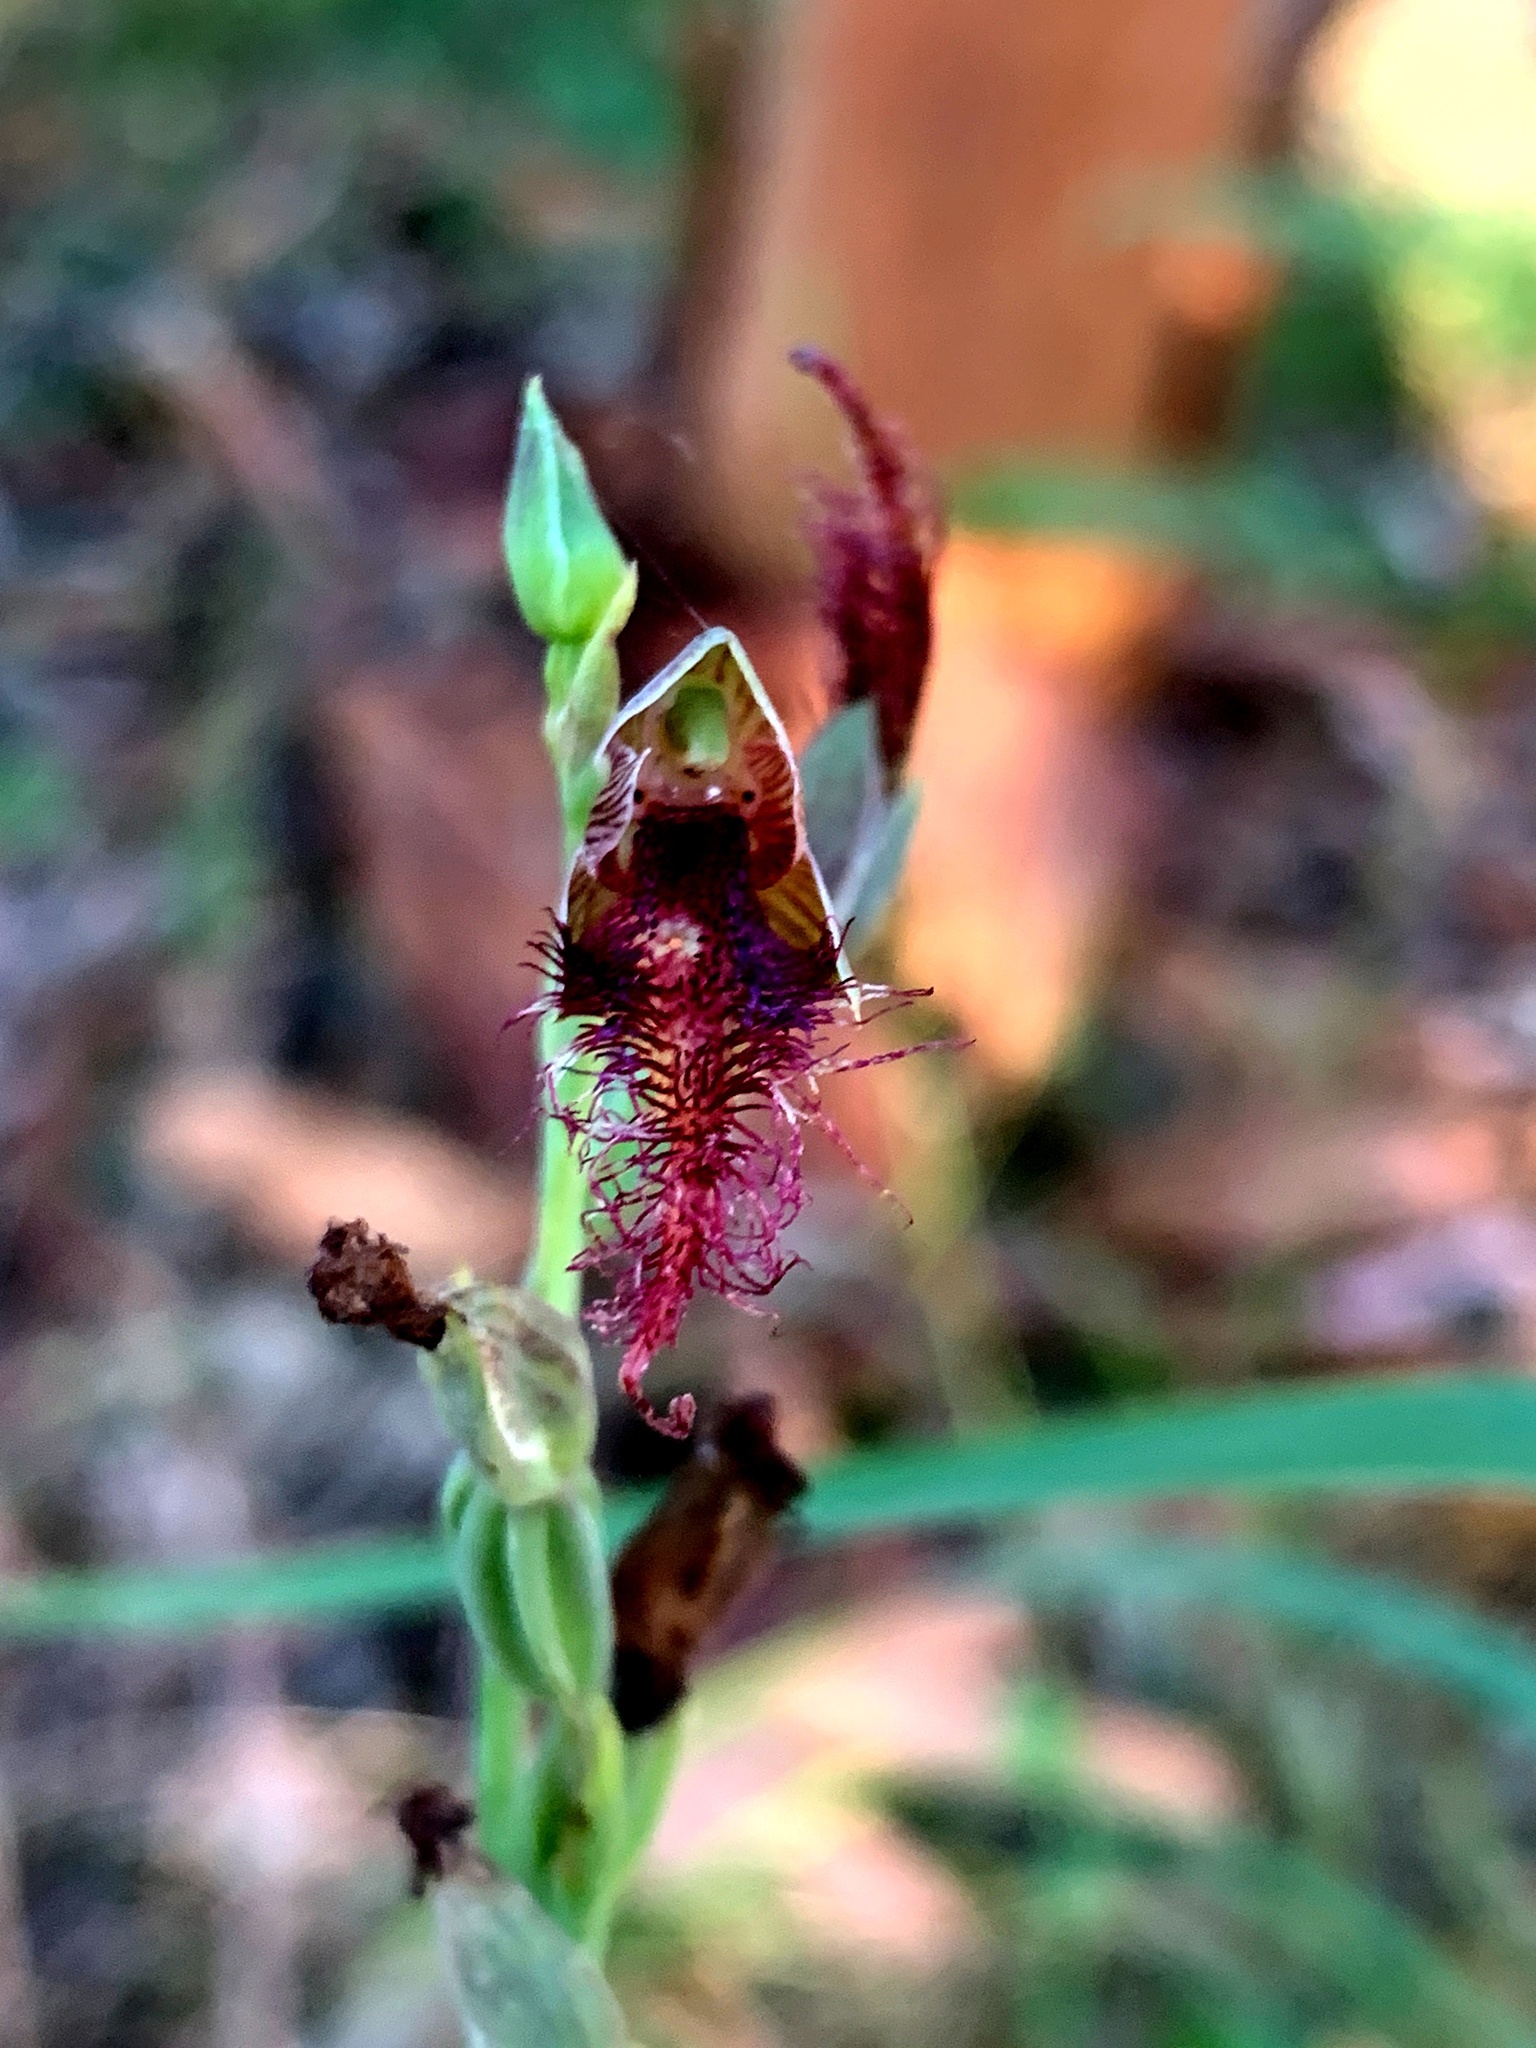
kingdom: Plantae
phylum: Tracheophyta
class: Liliopsida
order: Asparagales
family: Orchidaceae
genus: Calochilus
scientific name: Calochilus gracillimus
